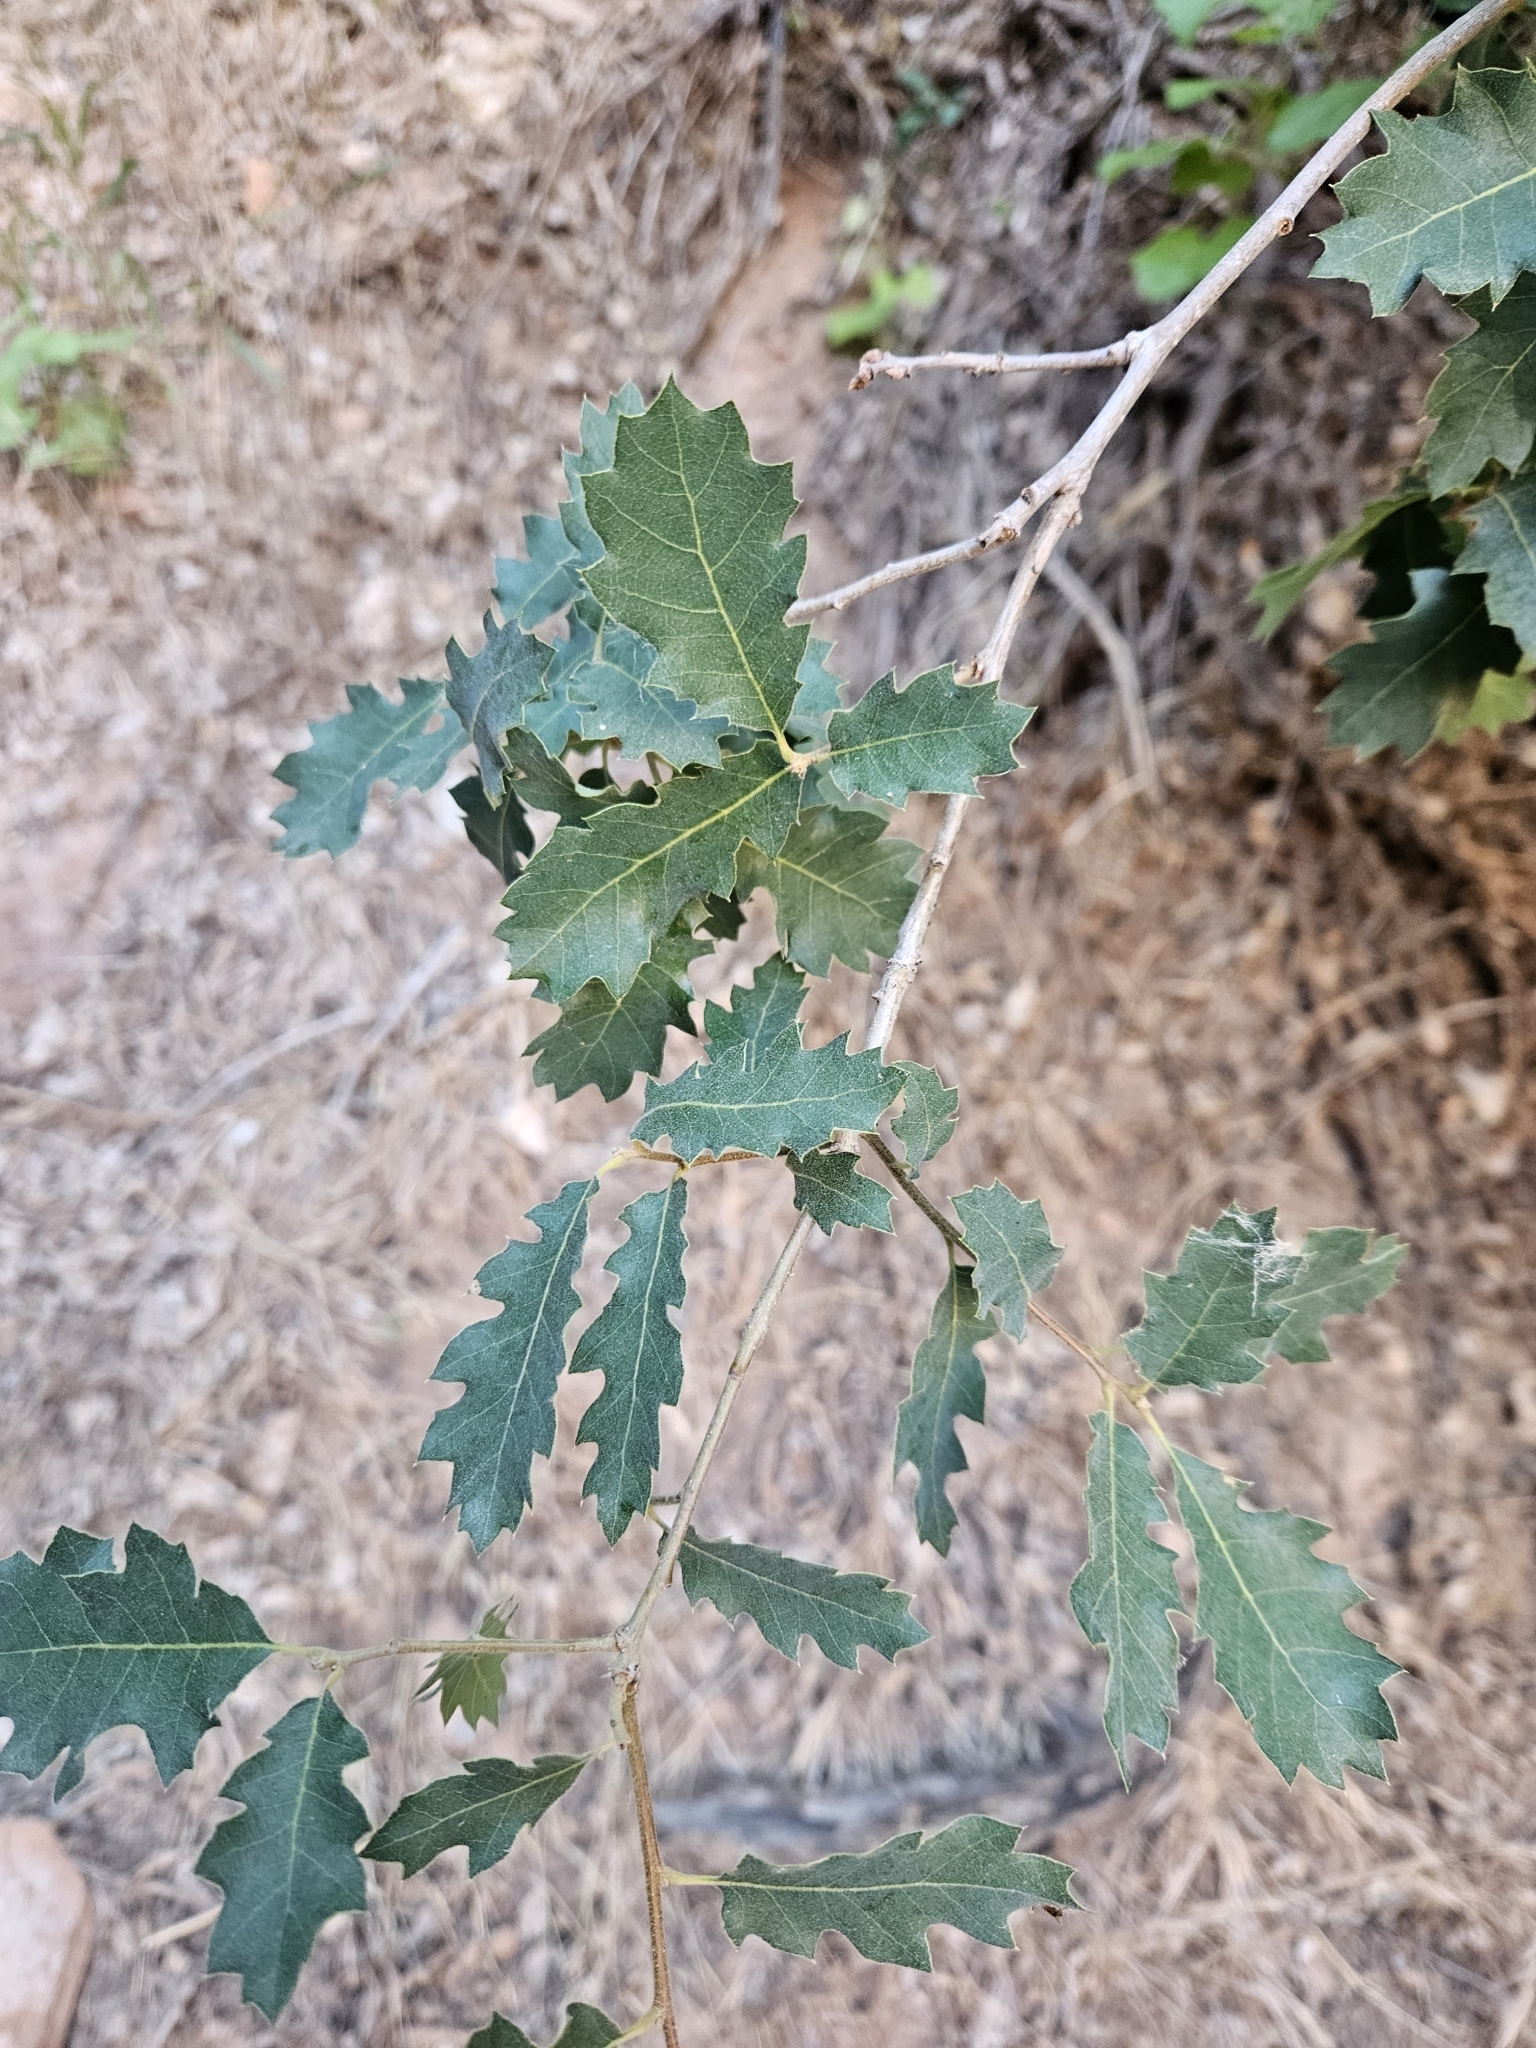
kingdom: Plantae
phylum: Tracheophyta
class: Magnoliopsida
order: Fagales
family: Fagaceae
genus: Quercus
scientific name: Quercus undulata
